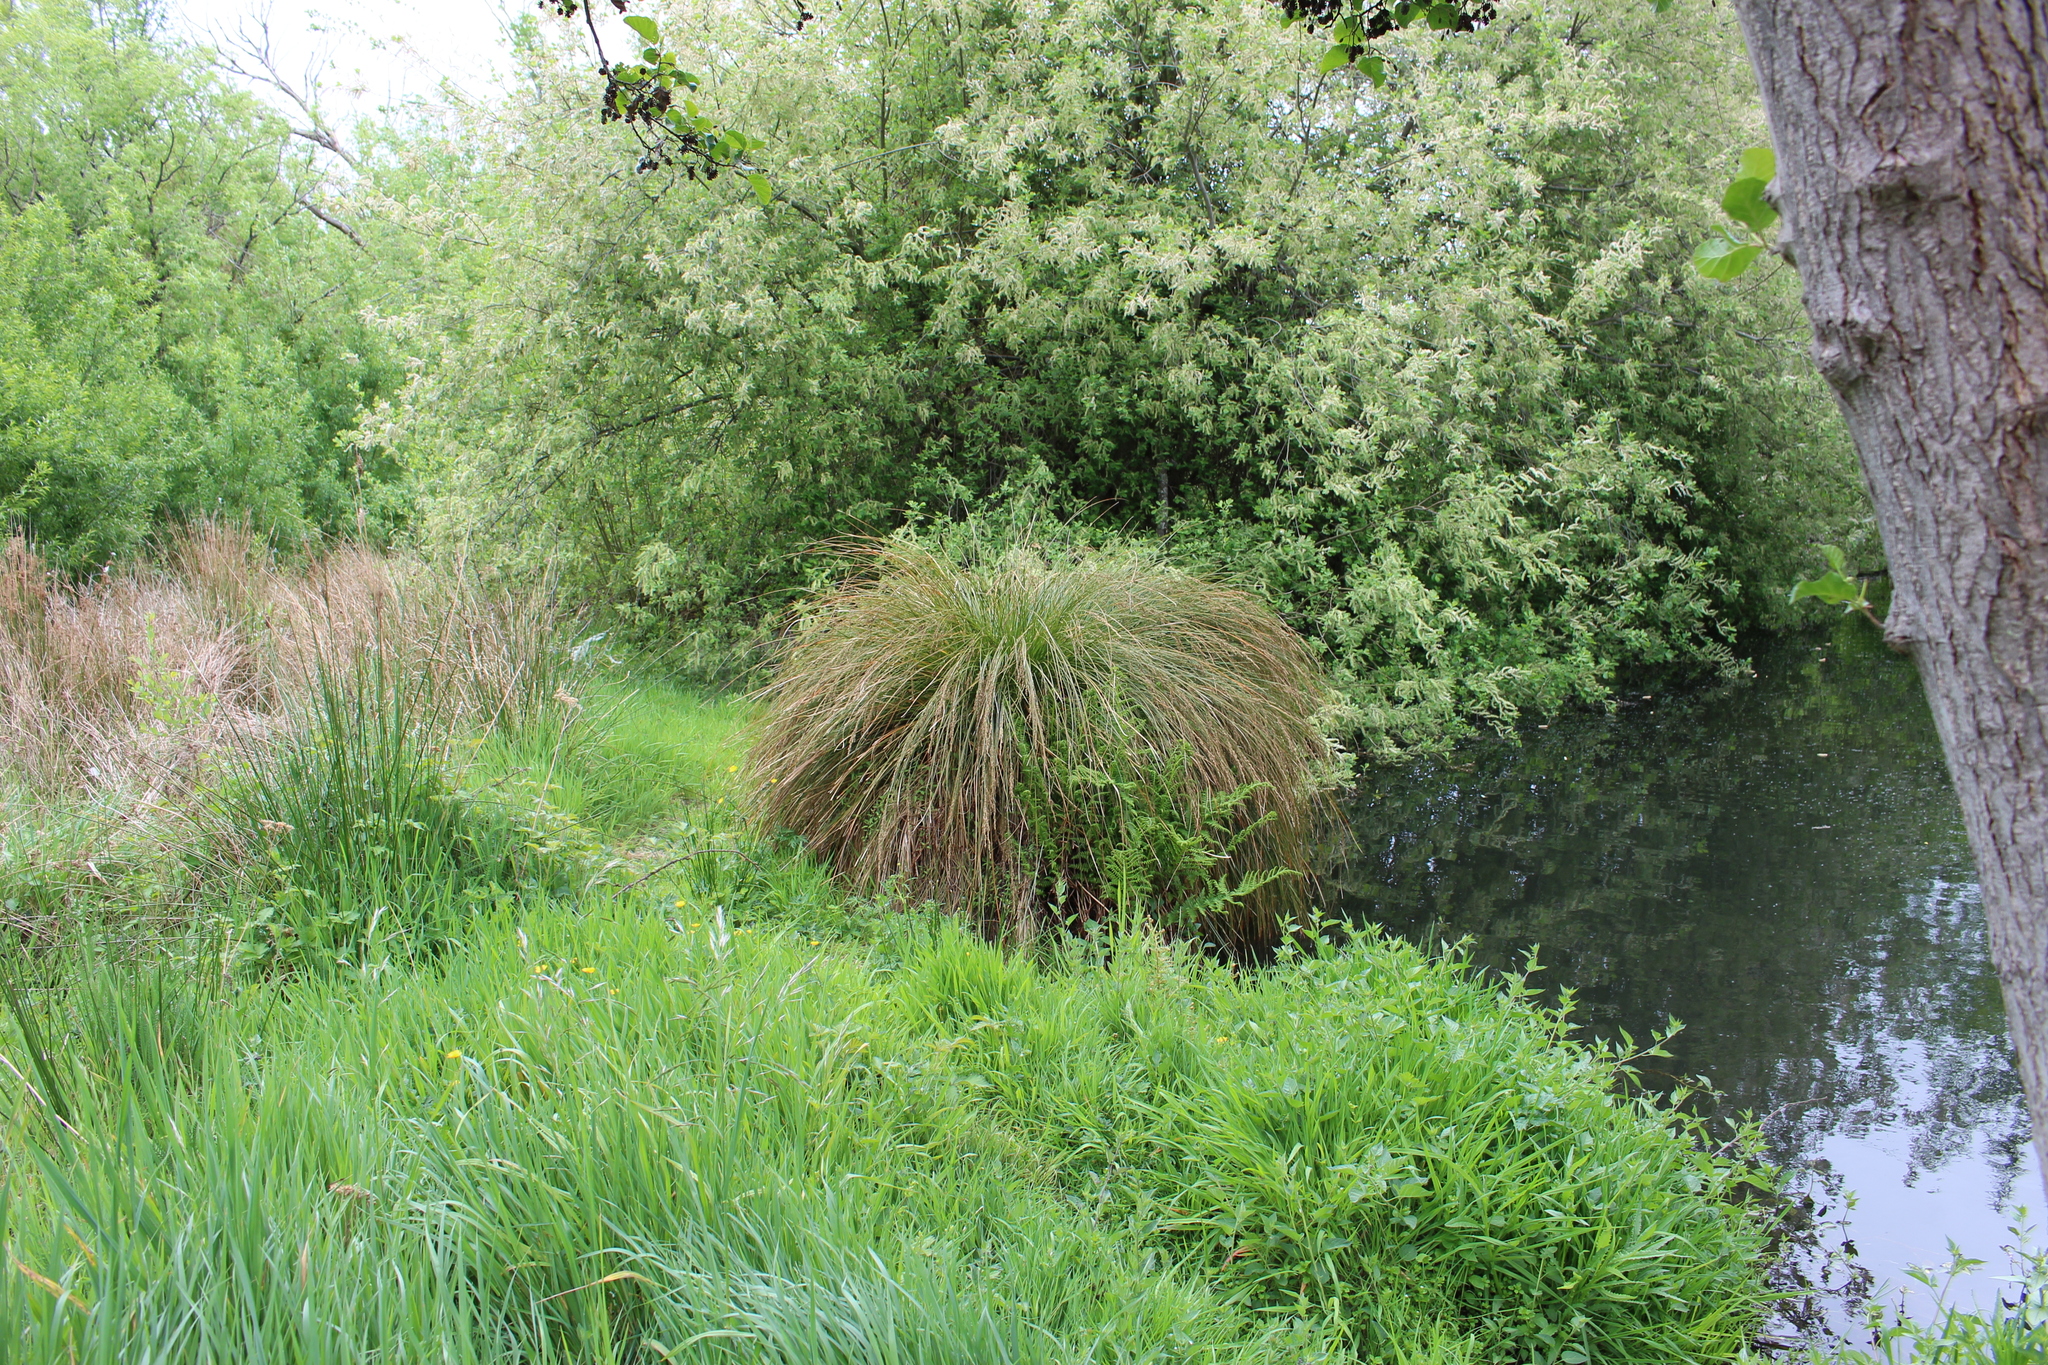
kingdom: Plantae
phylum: Tracheophyta
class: Liliopsida
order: Poales
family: Cyperaceae
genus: Carex
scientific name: Carex secta
